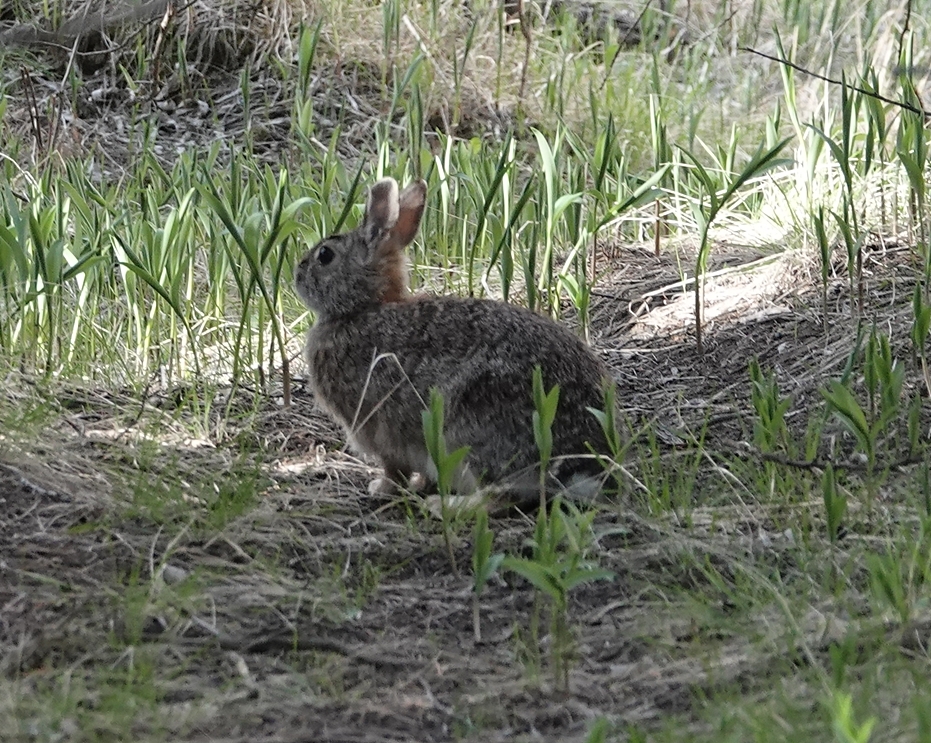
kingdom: Animalia
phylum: Chordata
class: Mammalia
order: Lagomorpha
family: Leporidae
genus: Sylvilagus
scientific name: Sylvilagus floridanus
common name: Eastern cottontail
